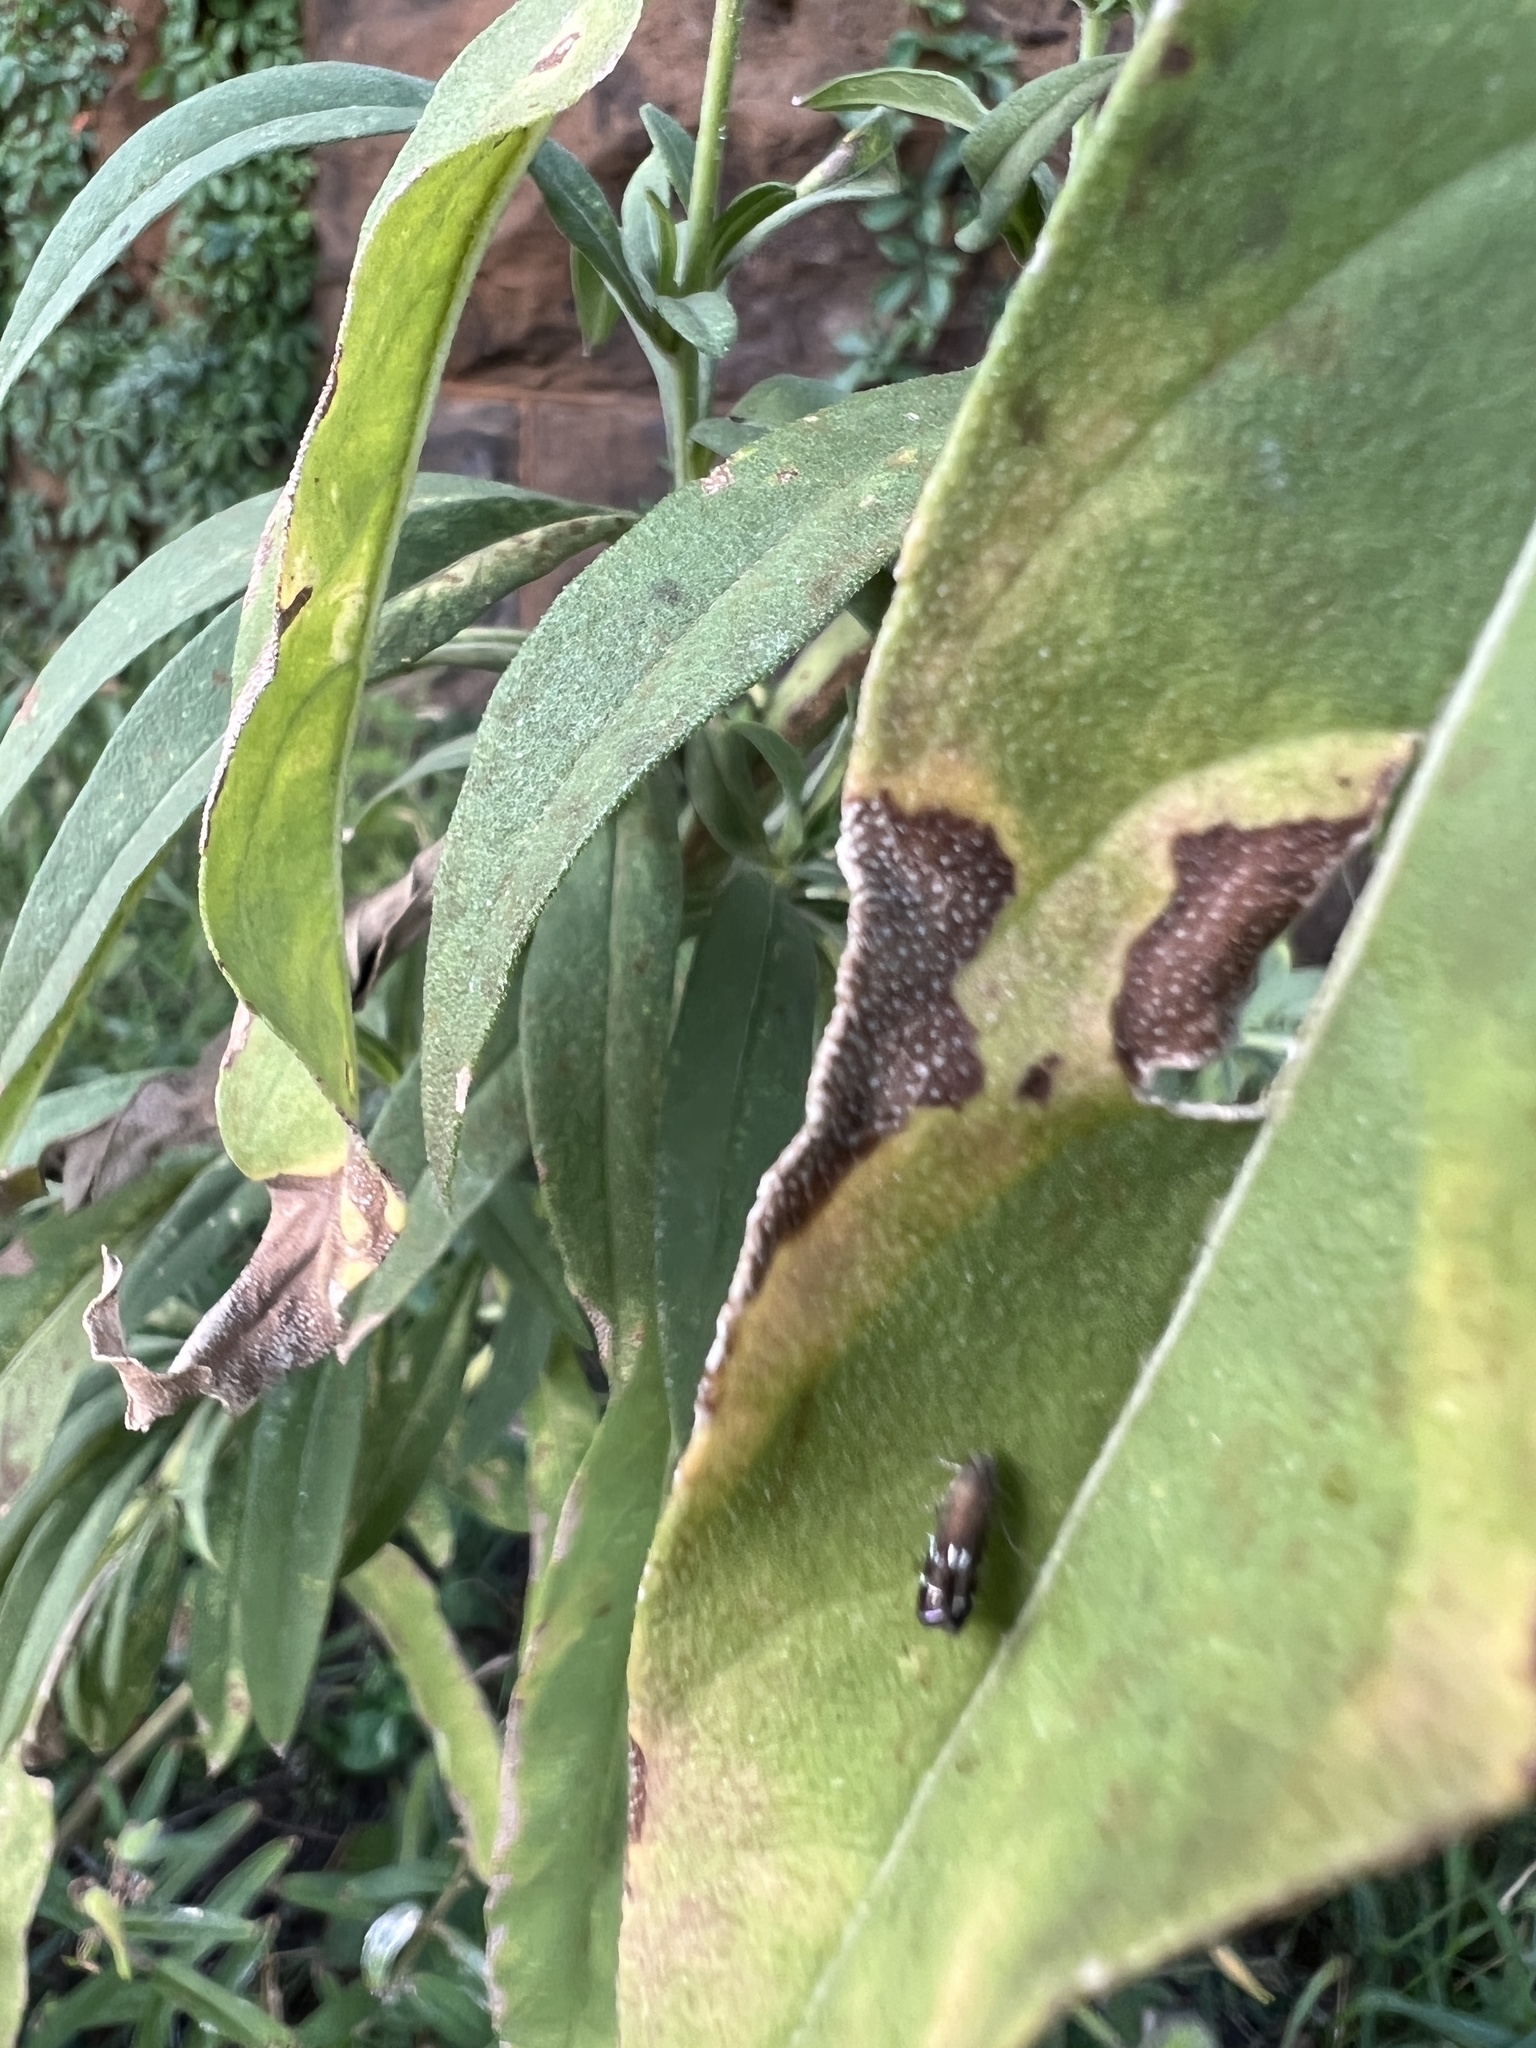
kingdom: Animalia
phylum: Arthropoda
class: Insecta
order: Lepidoptera
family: Gelechiidae
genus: Anacampsis
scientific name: Anacampsis levipedella
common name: Silver-dashed anacampsis
